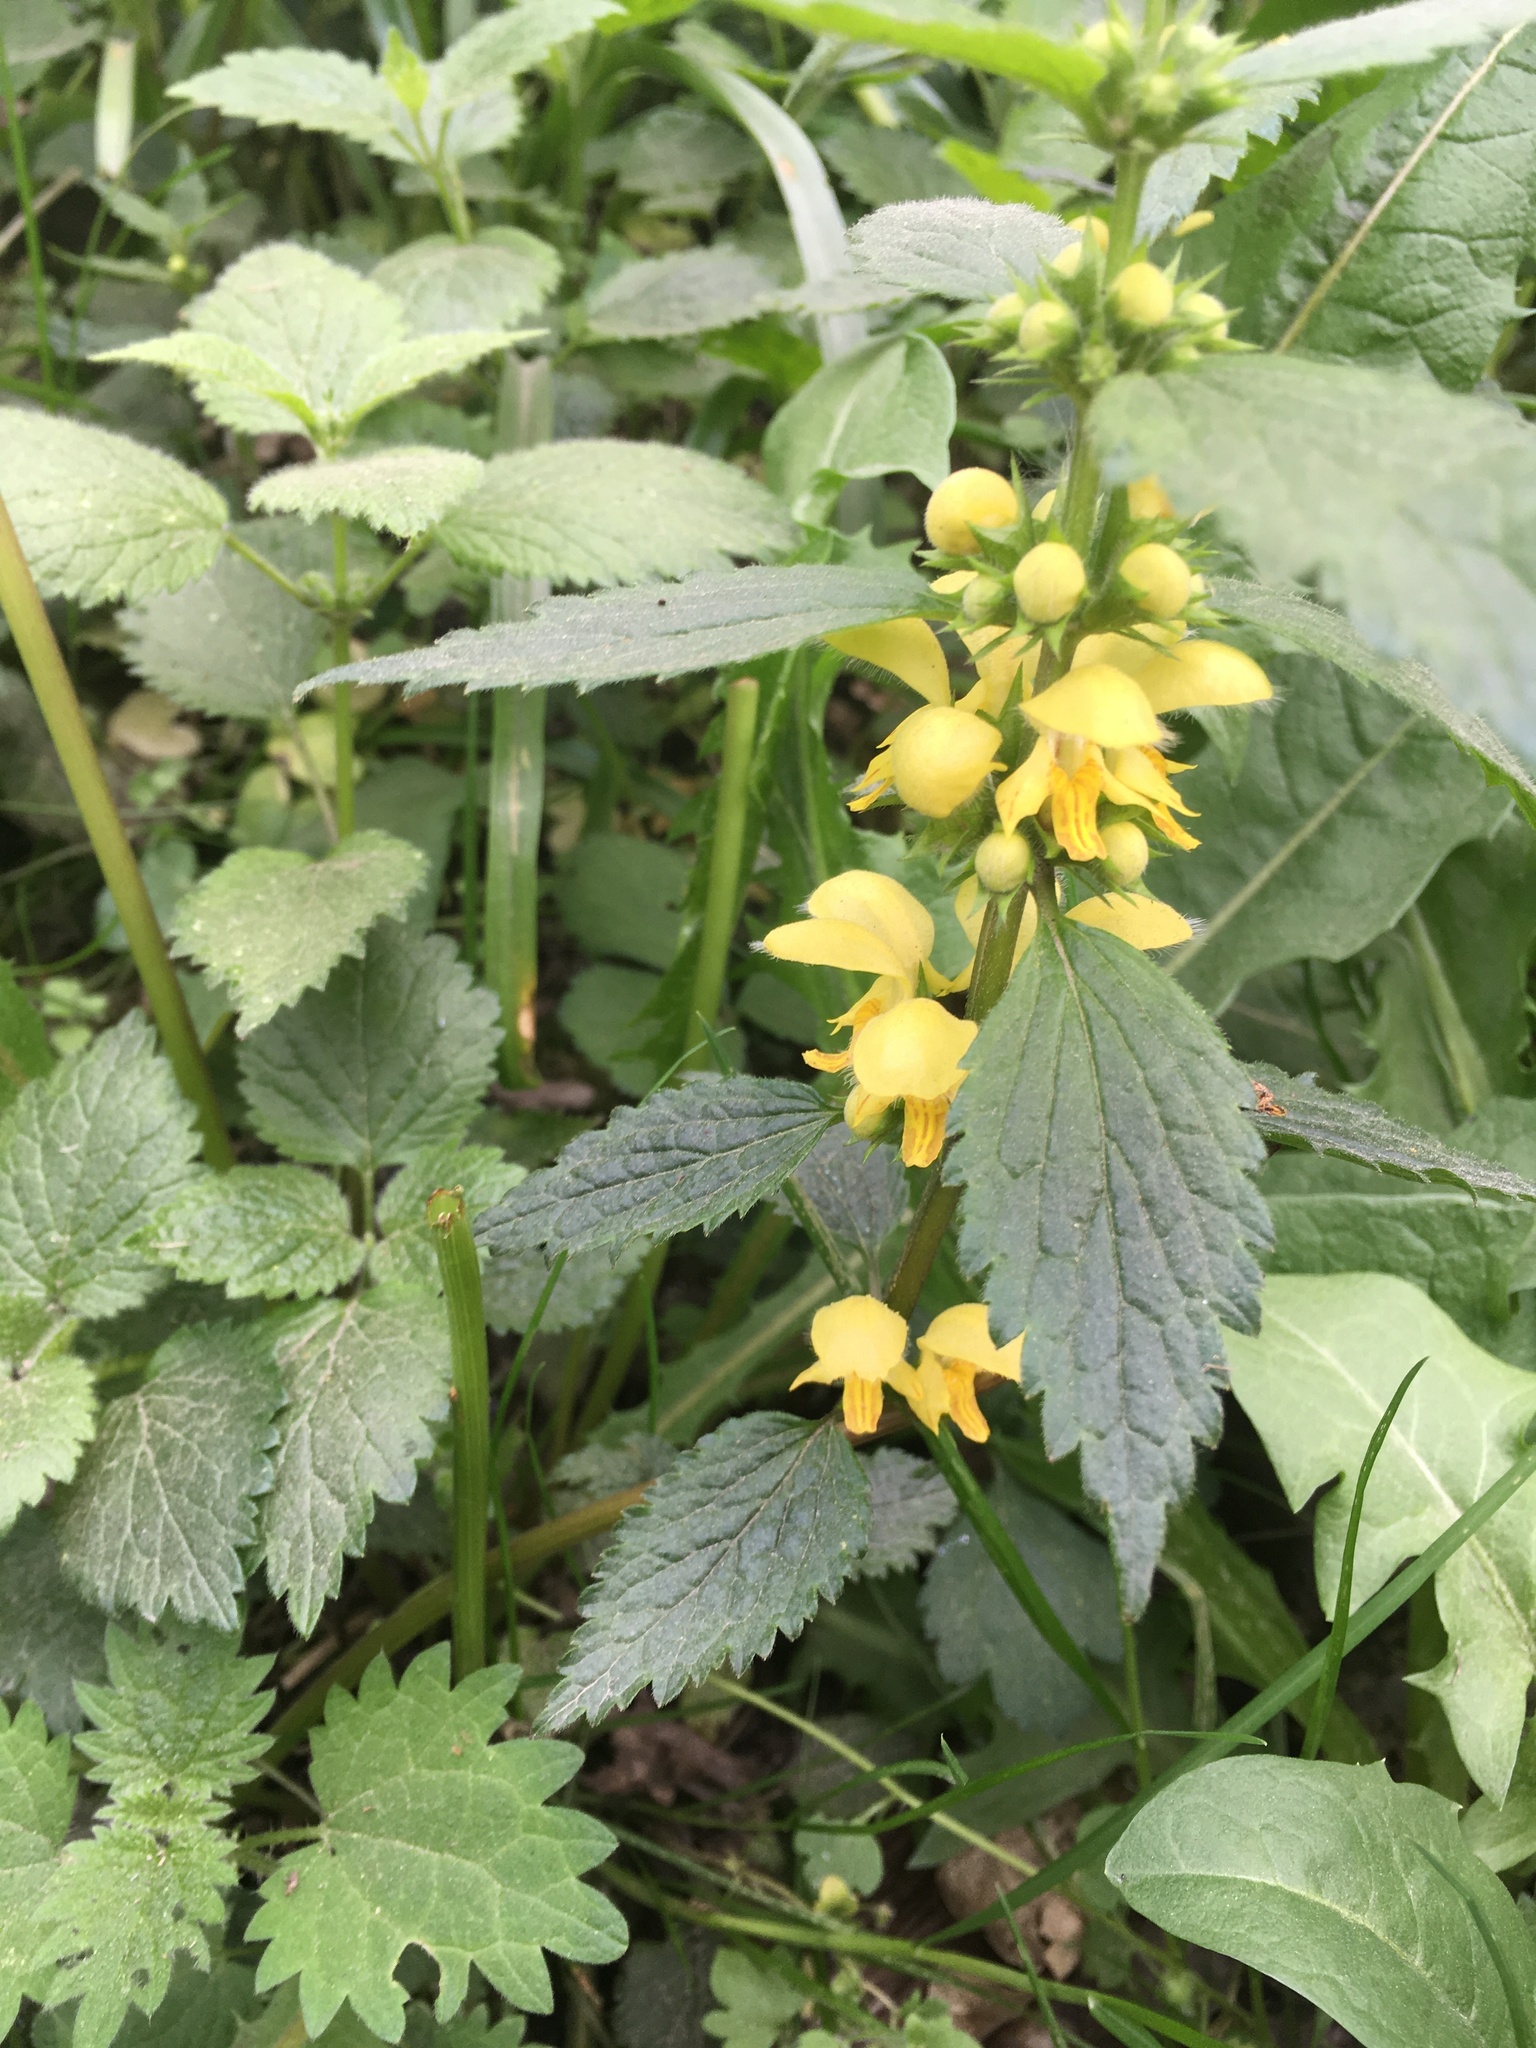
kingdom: Plantae
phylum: Tracheophyta
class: Magnoliopsida
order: Lamiales
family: Lamiaceae
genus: Lamium
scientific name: Lamium galeobdolon
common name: Yellow archangel
